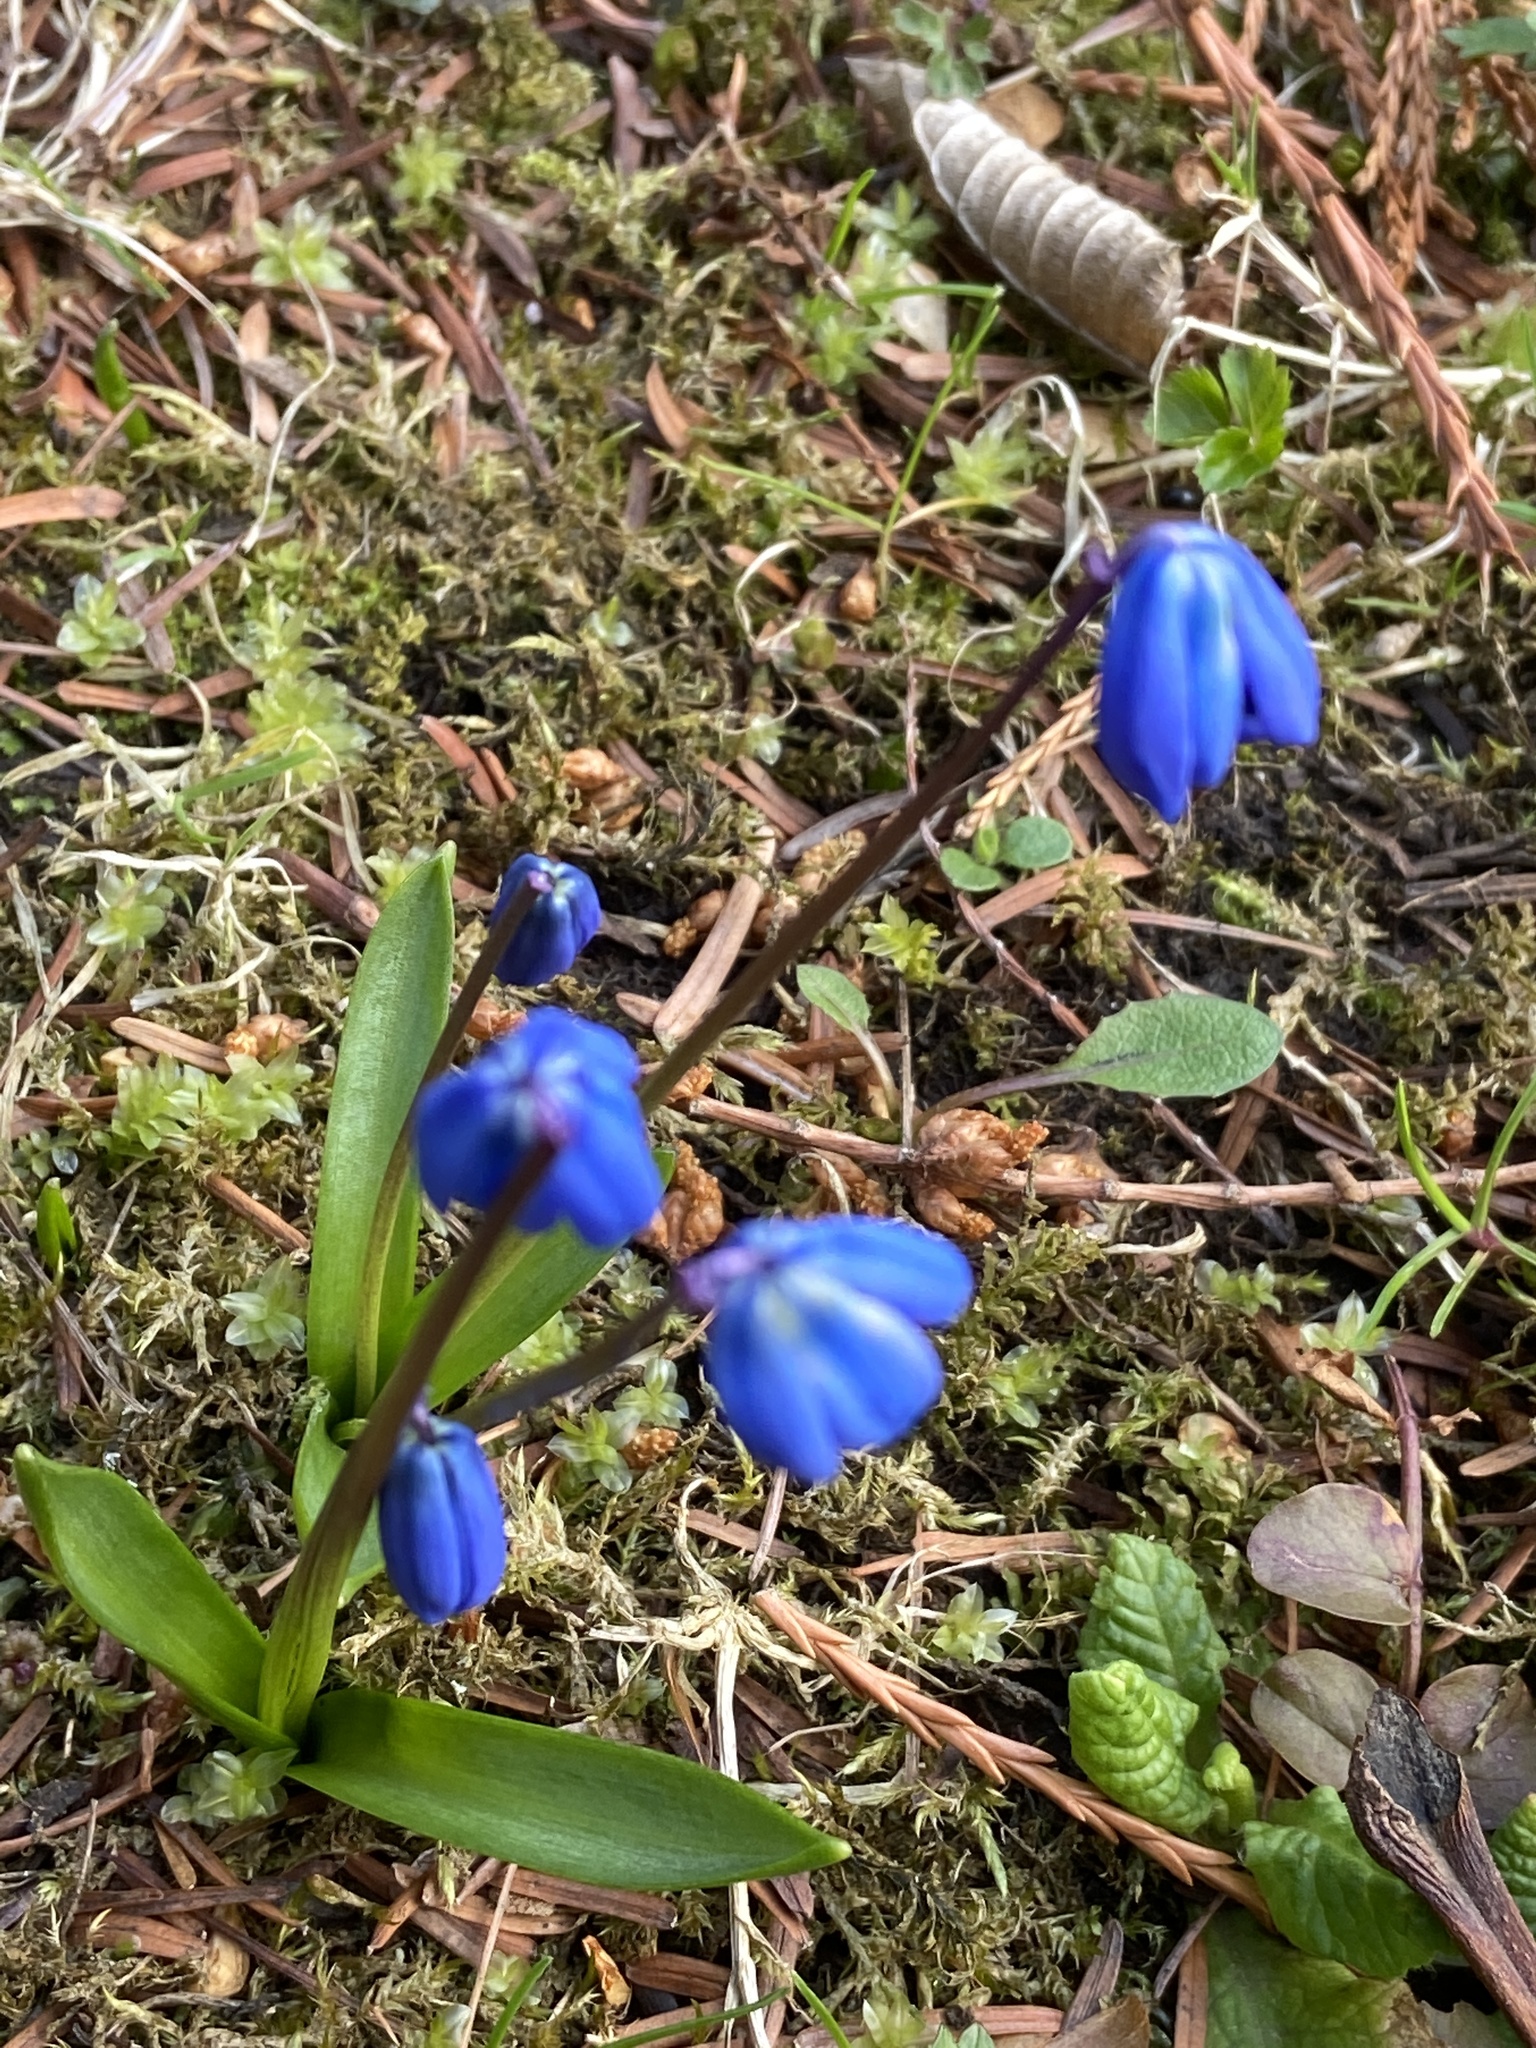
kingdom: Plantae
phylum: Tracheophyta
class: Liliopsida
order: Asparagales
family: Asparagaceae
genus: Scilla
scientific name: Scilla siberica
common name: Siberian squill
